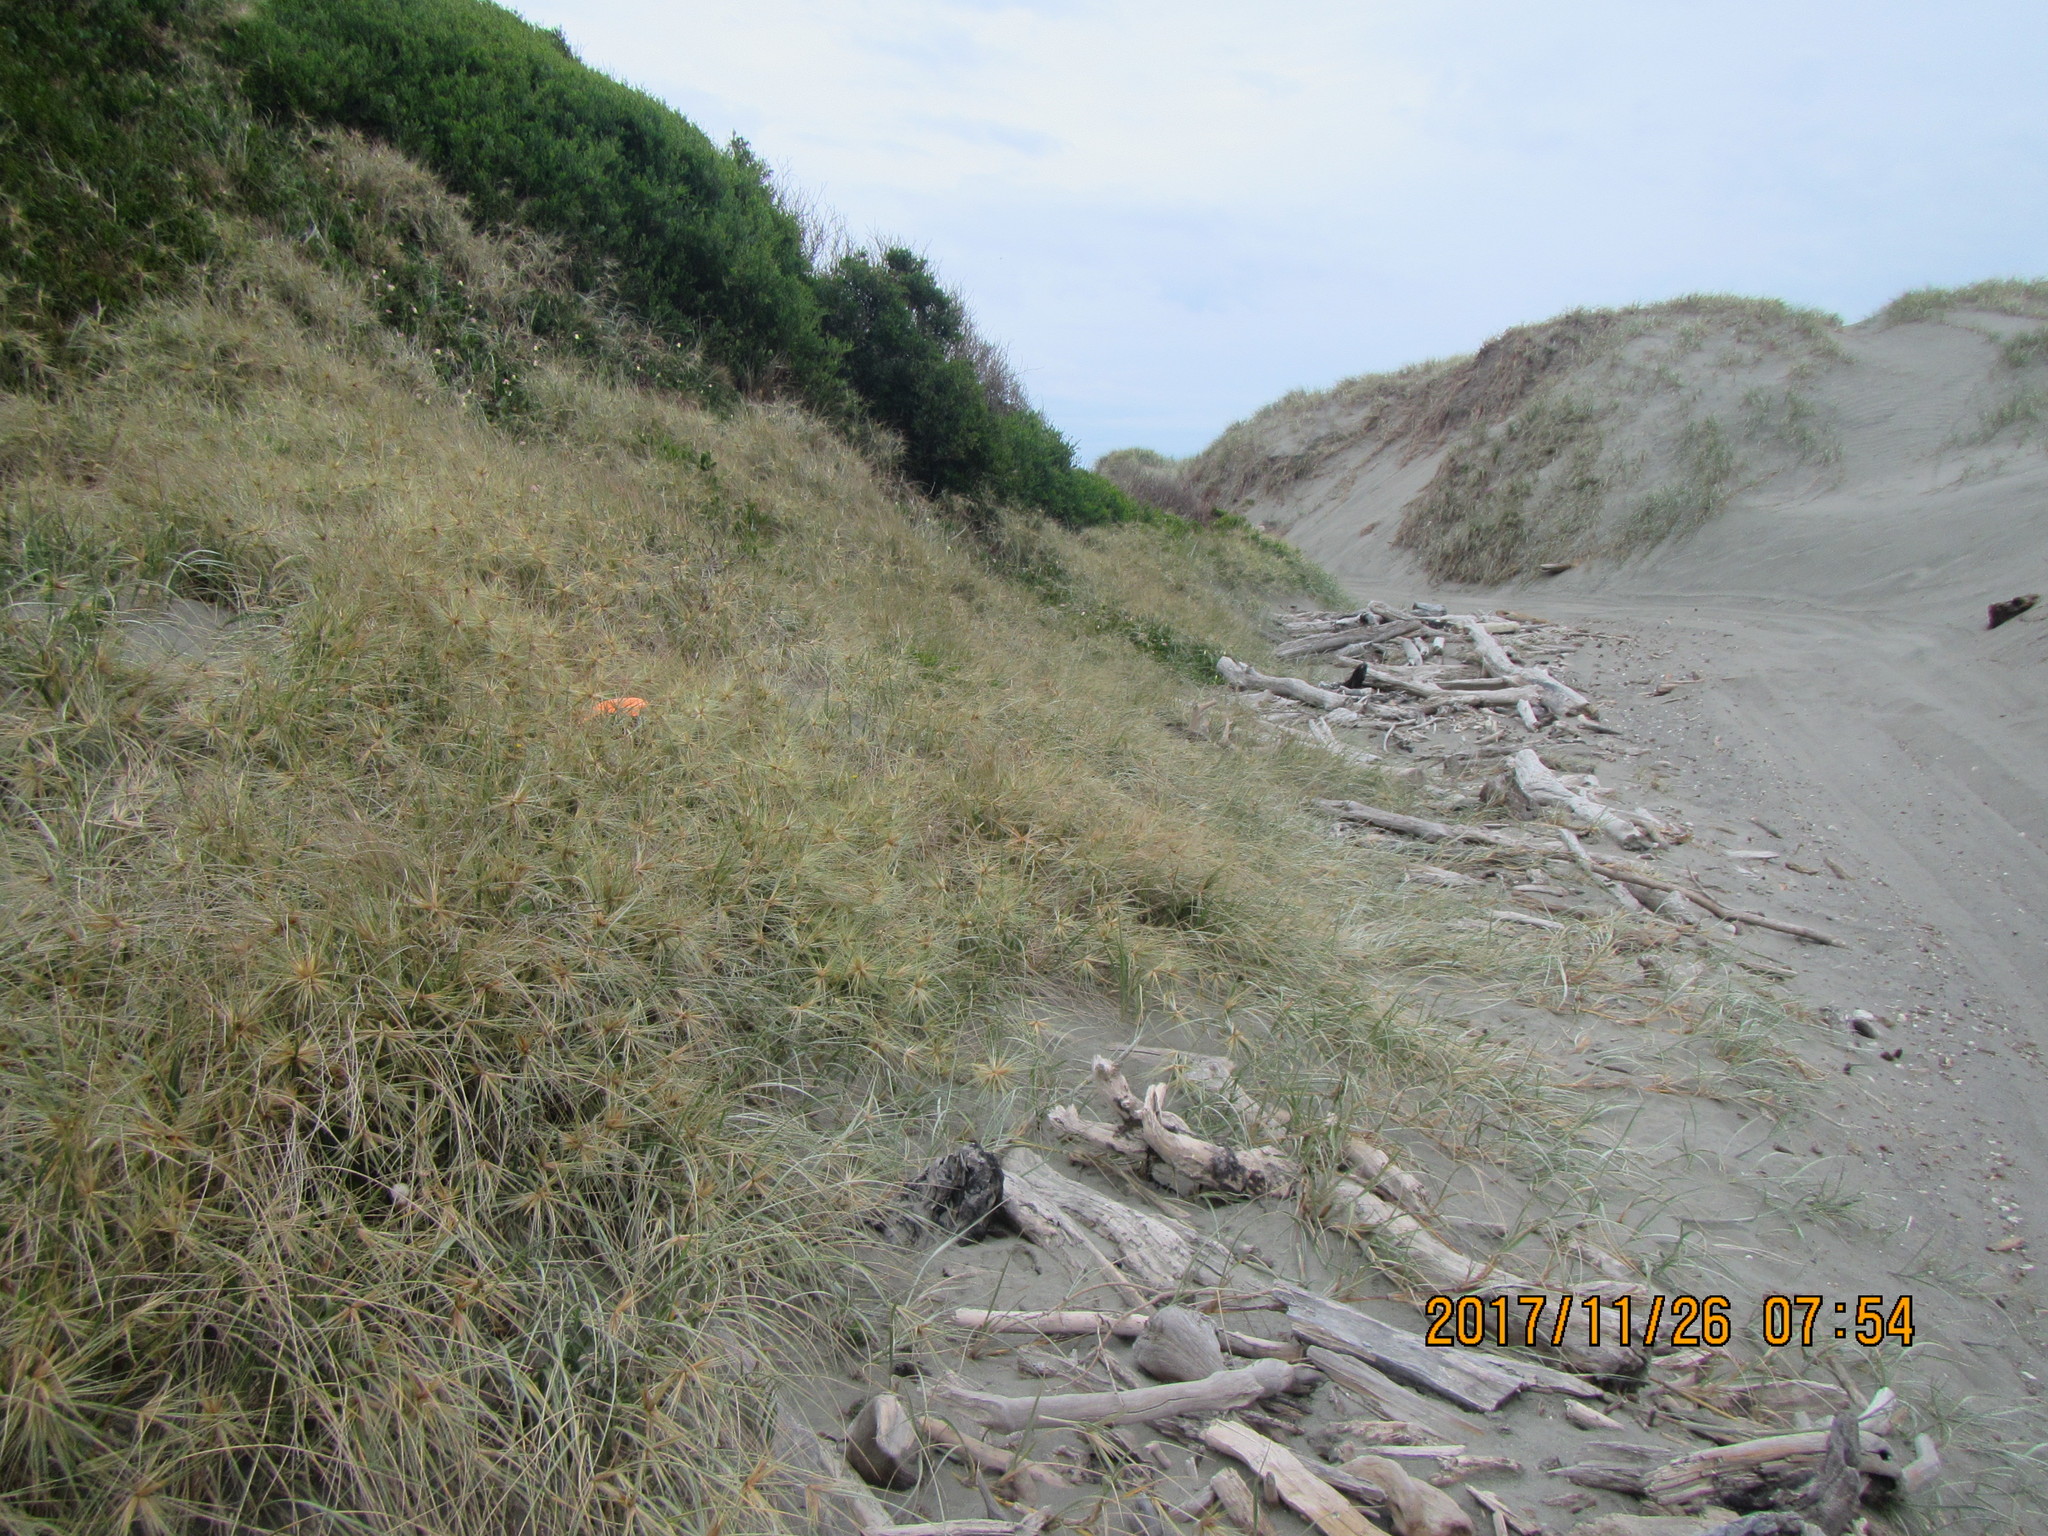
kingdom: Animalia
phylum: Arthropoda
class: Arachnida
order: Araneae
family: Theridiidae
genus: Steatoda
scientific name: Steatoda capensis
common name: Cobweb weaver
